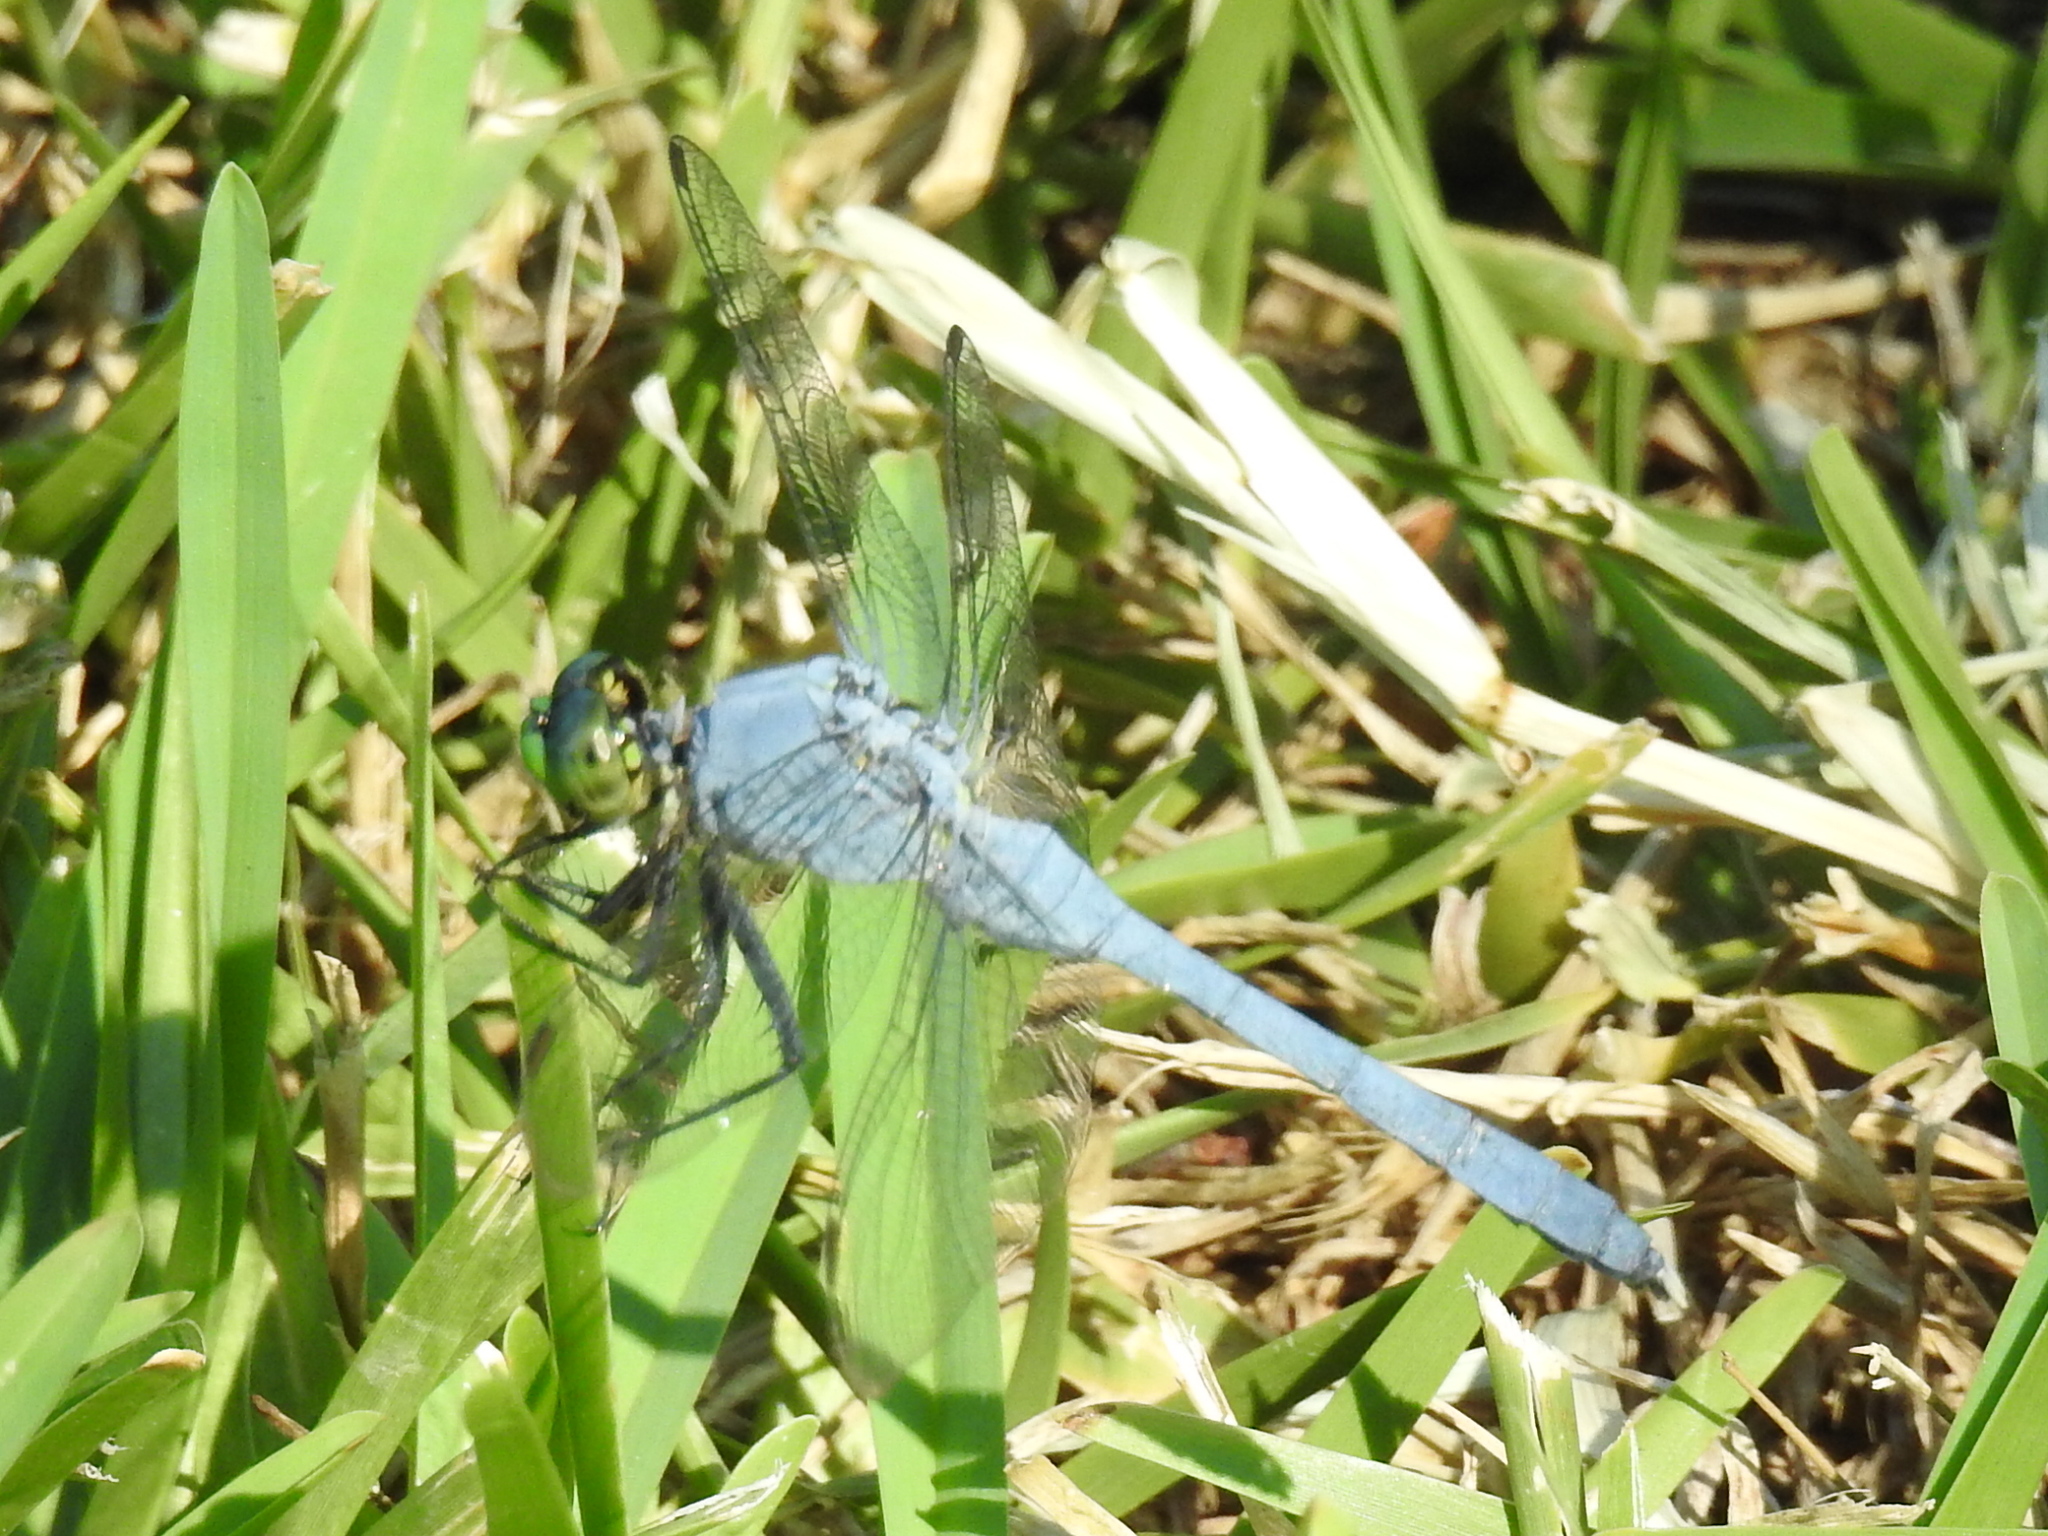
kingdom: Animalia
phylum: Arthropoda
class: Insecta
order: Odonata
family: Libellulidae
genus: Erythemis
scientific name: Erythemis simplicicollis
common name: Eastern pondhawk
